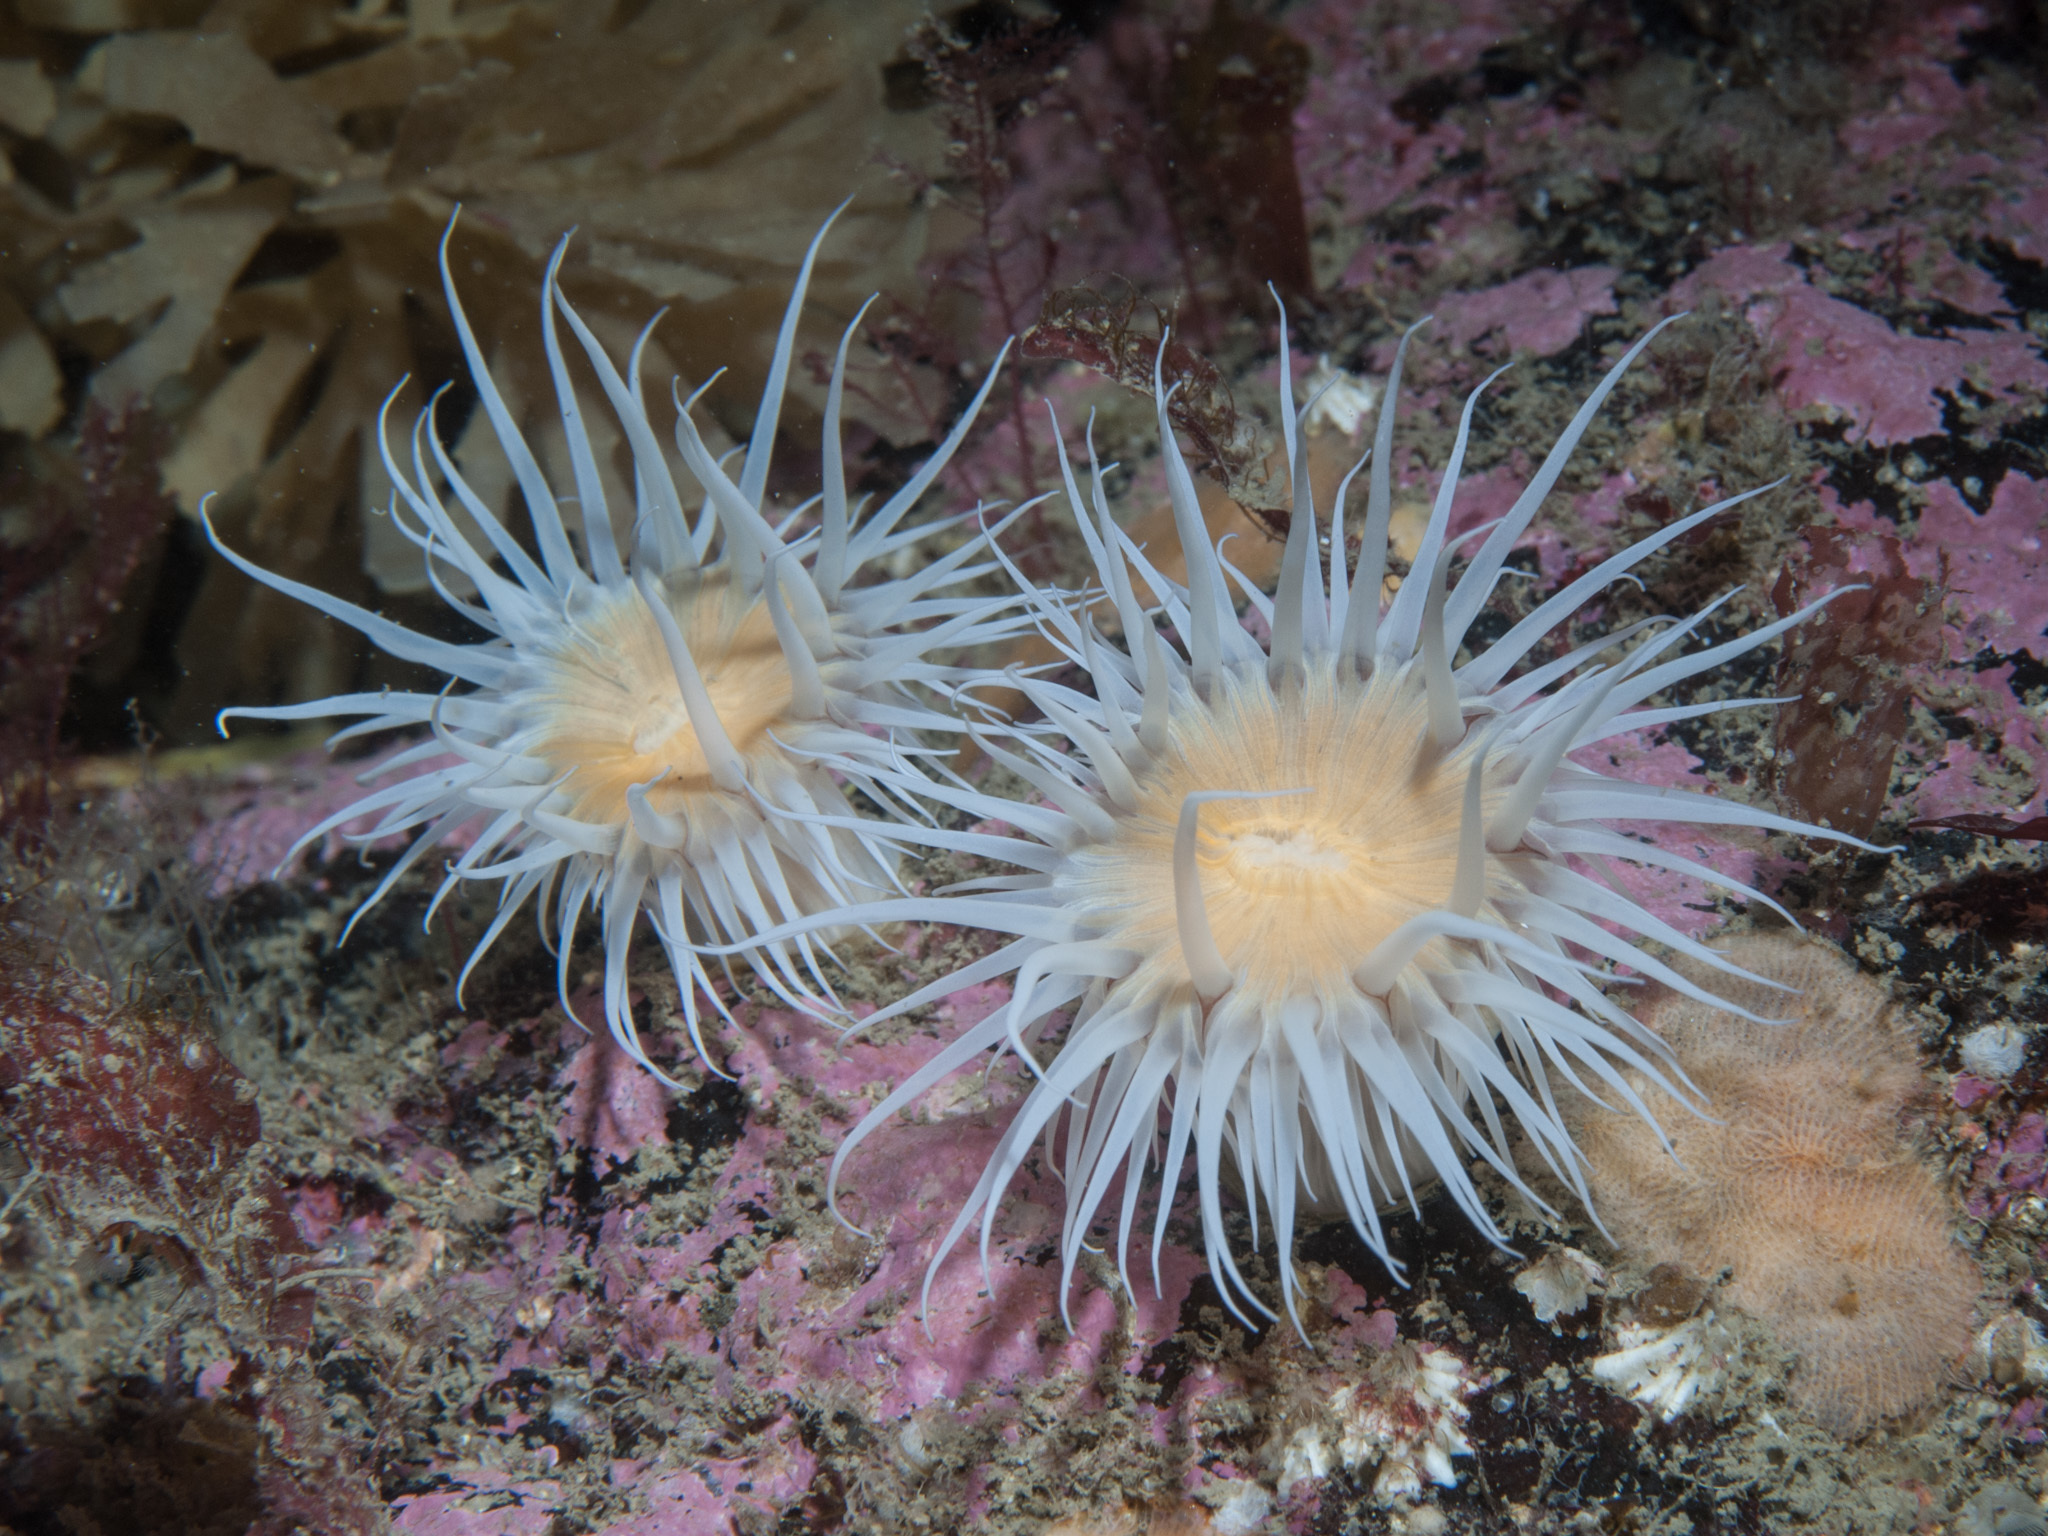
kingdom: Animalia
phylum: Cnidaria
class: Anthozoa
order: Actiniaria
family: Sagartiidae
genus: Actinothoe
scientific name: Actinothoe sphyrodeta
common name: Sandalled anemone
